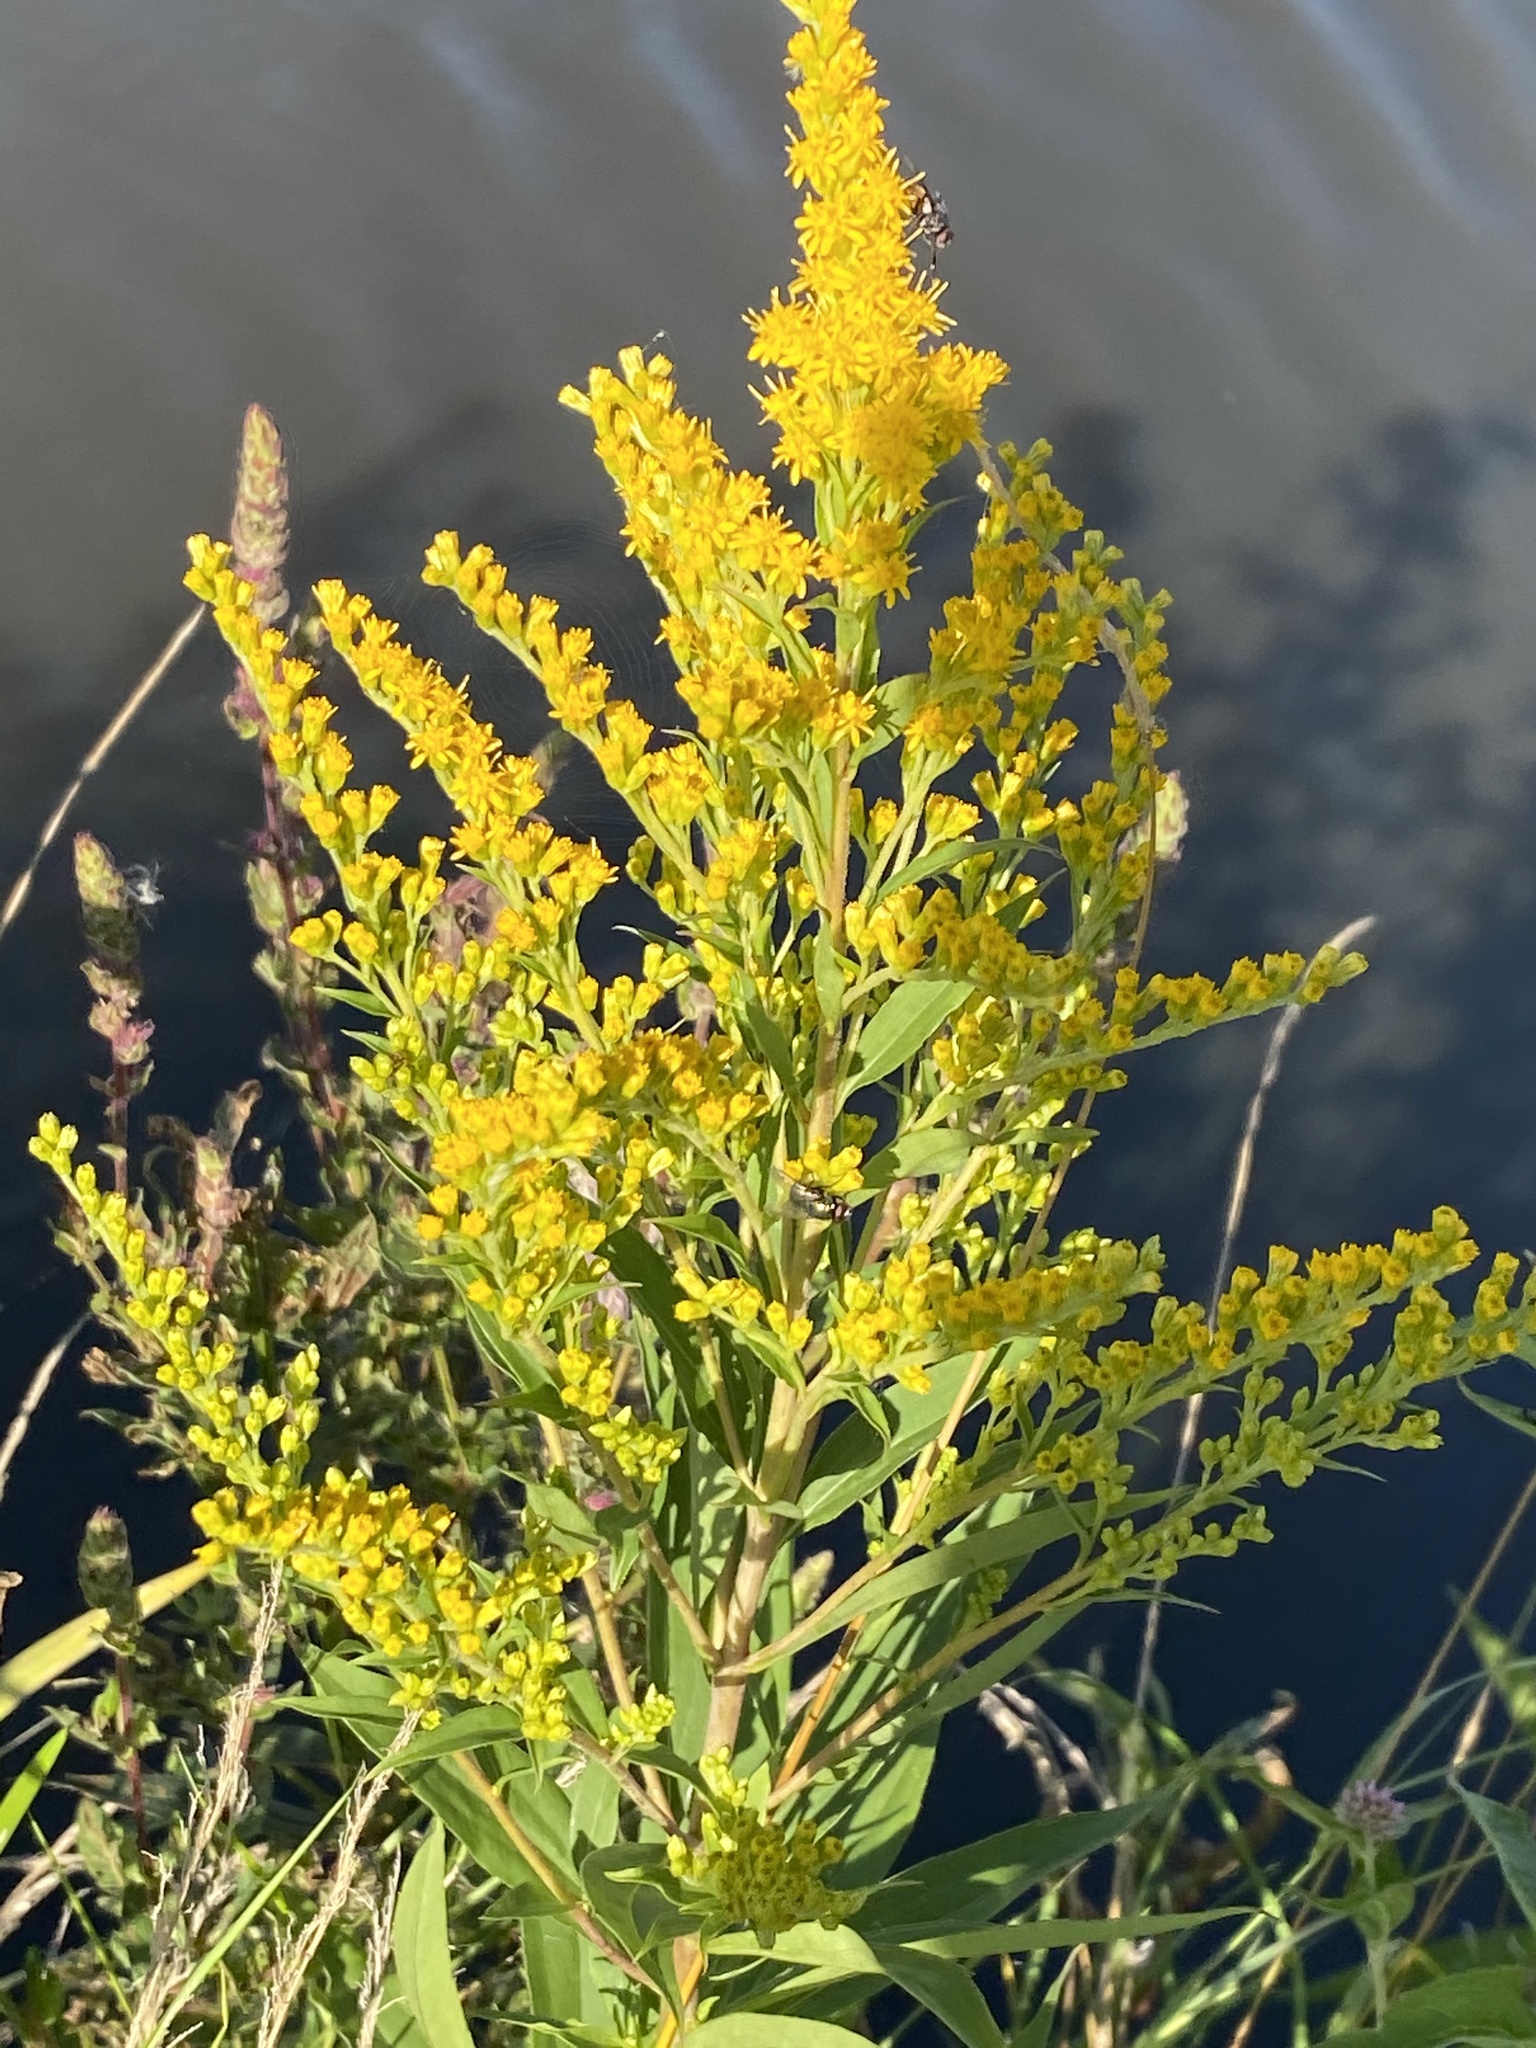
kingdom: Plantae
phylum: Tracheophyta
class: Magnoliopsida
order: Asterales
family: Asteraceae
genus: Solidago
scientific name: Solidago gigantea
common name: Giant goldenrod
